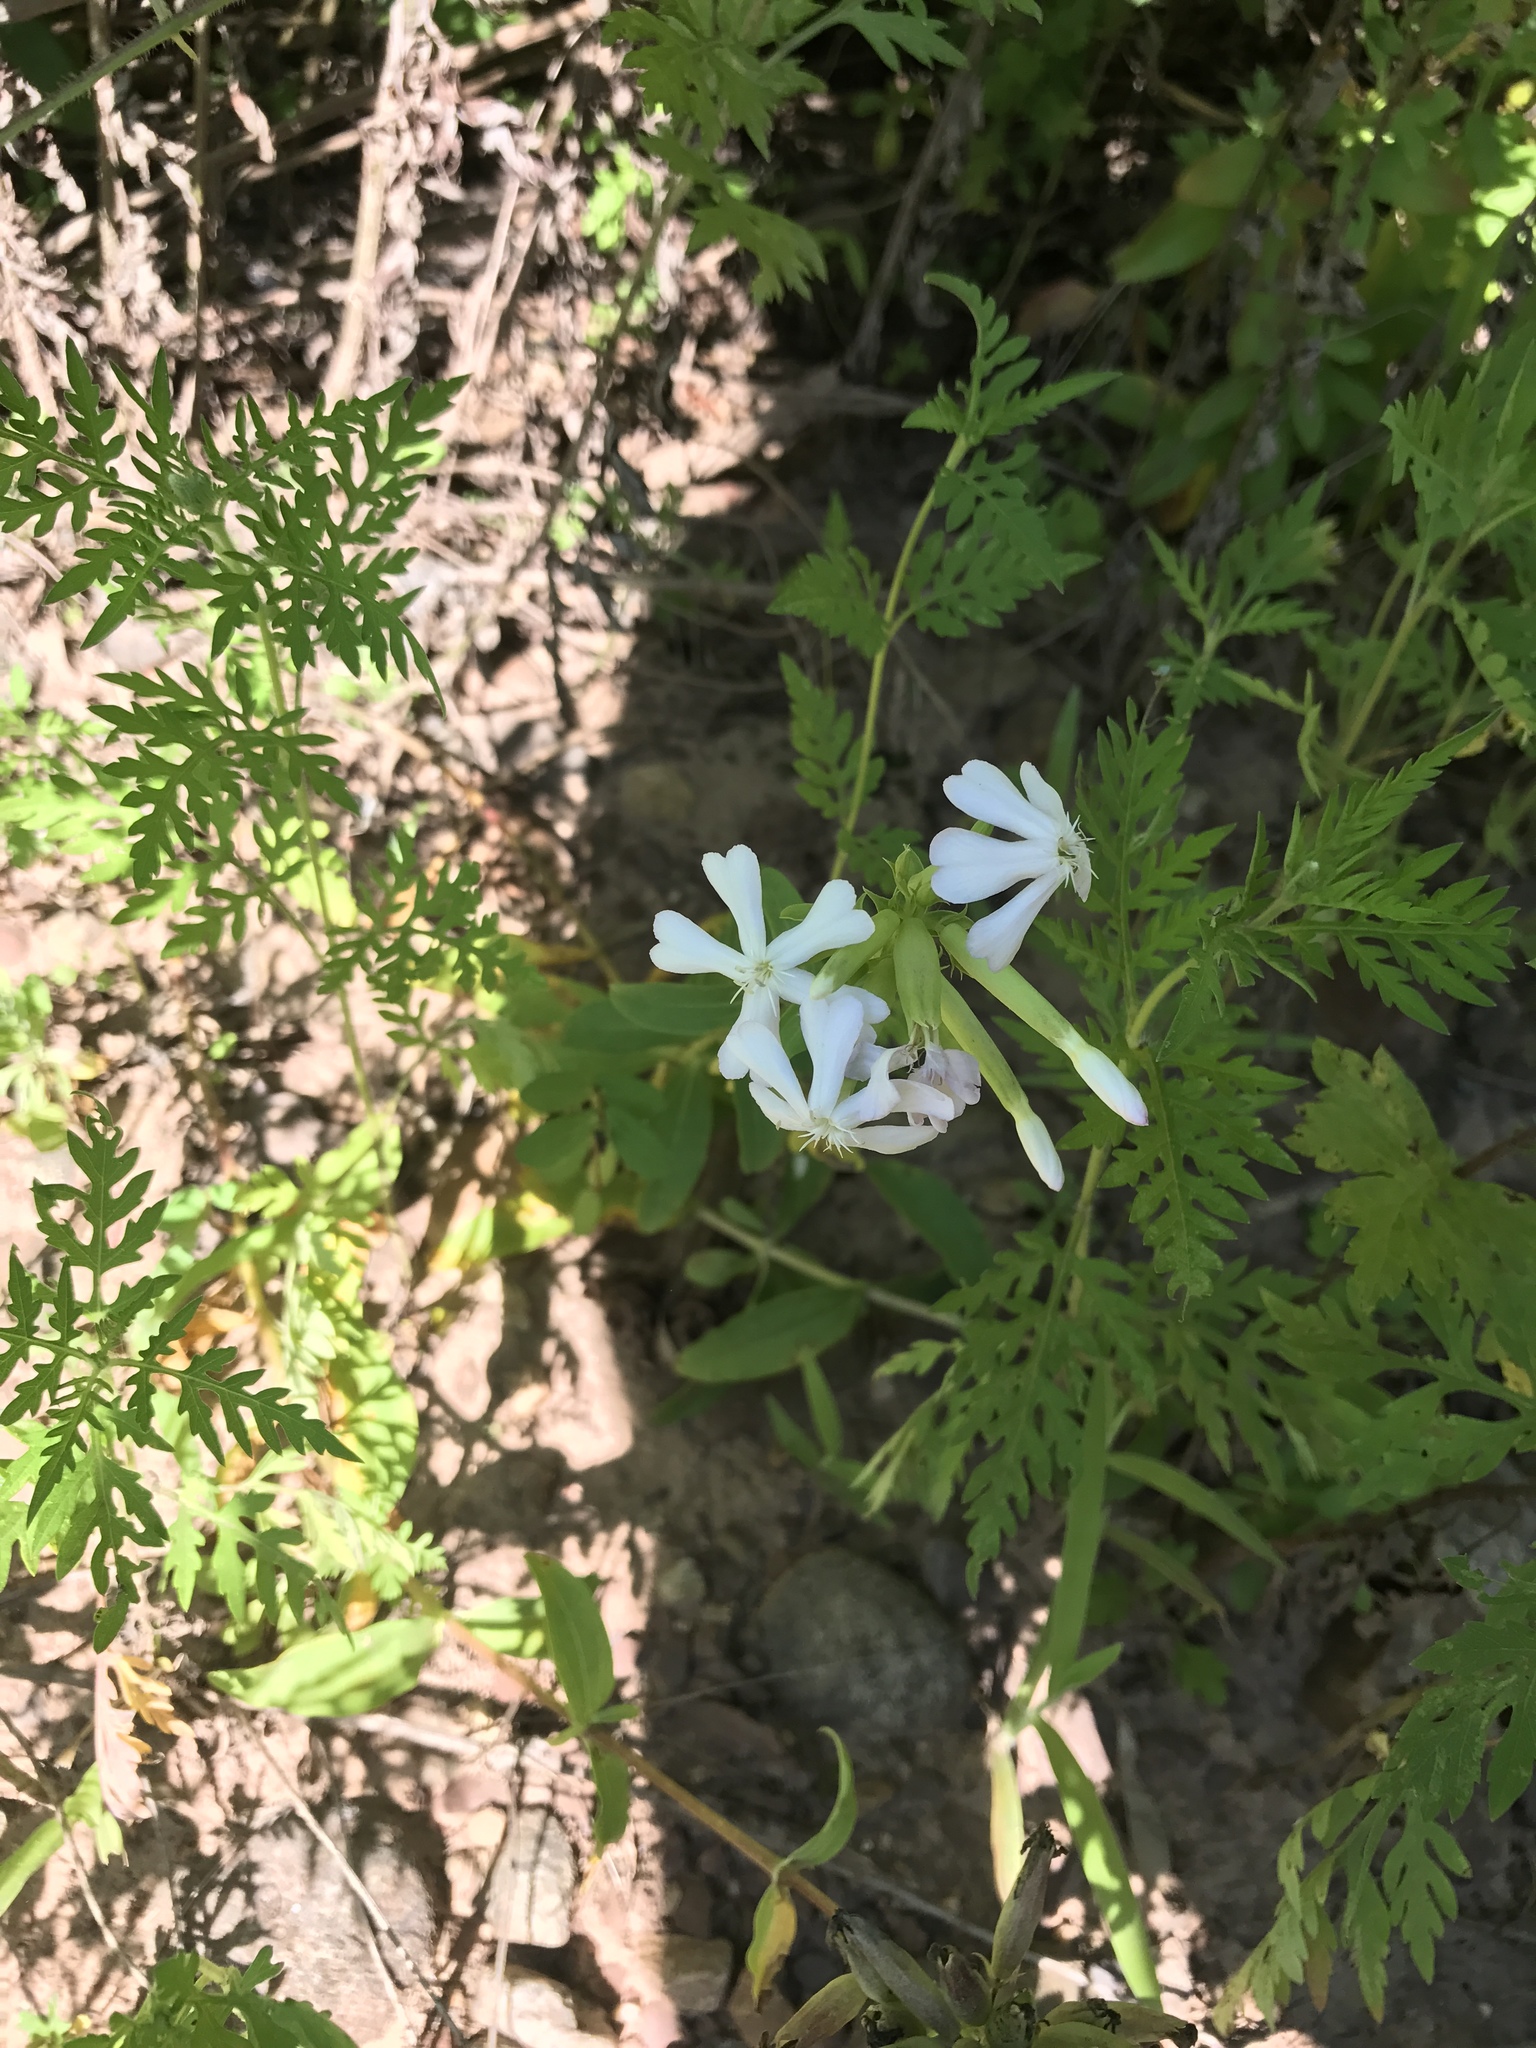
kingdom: Plantae
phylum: Tracheophyta
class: Magnoliopsida
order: Caryophyllales
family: Caryophyllaceae
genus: Saponaria
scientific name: Saponaria officinalis
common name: Soapwort
